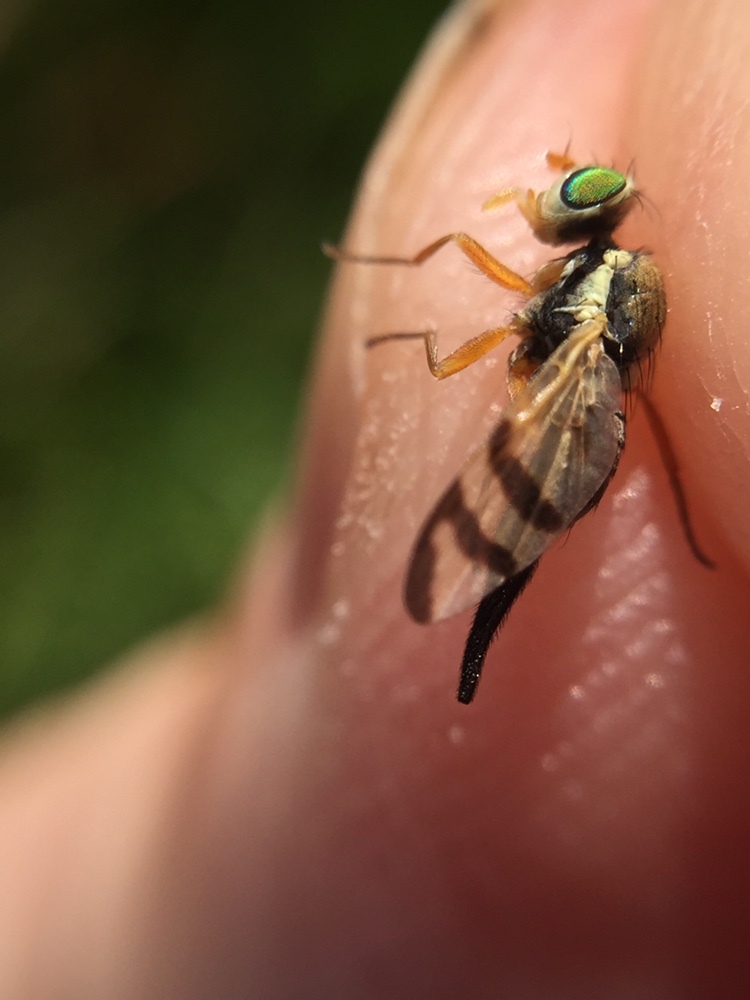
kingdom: Animalia
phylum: Arthropoda
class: Insecta
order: Diptera
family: Tephritidae
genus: Urophora
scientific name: Urophora stylata
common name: Fruit fly
